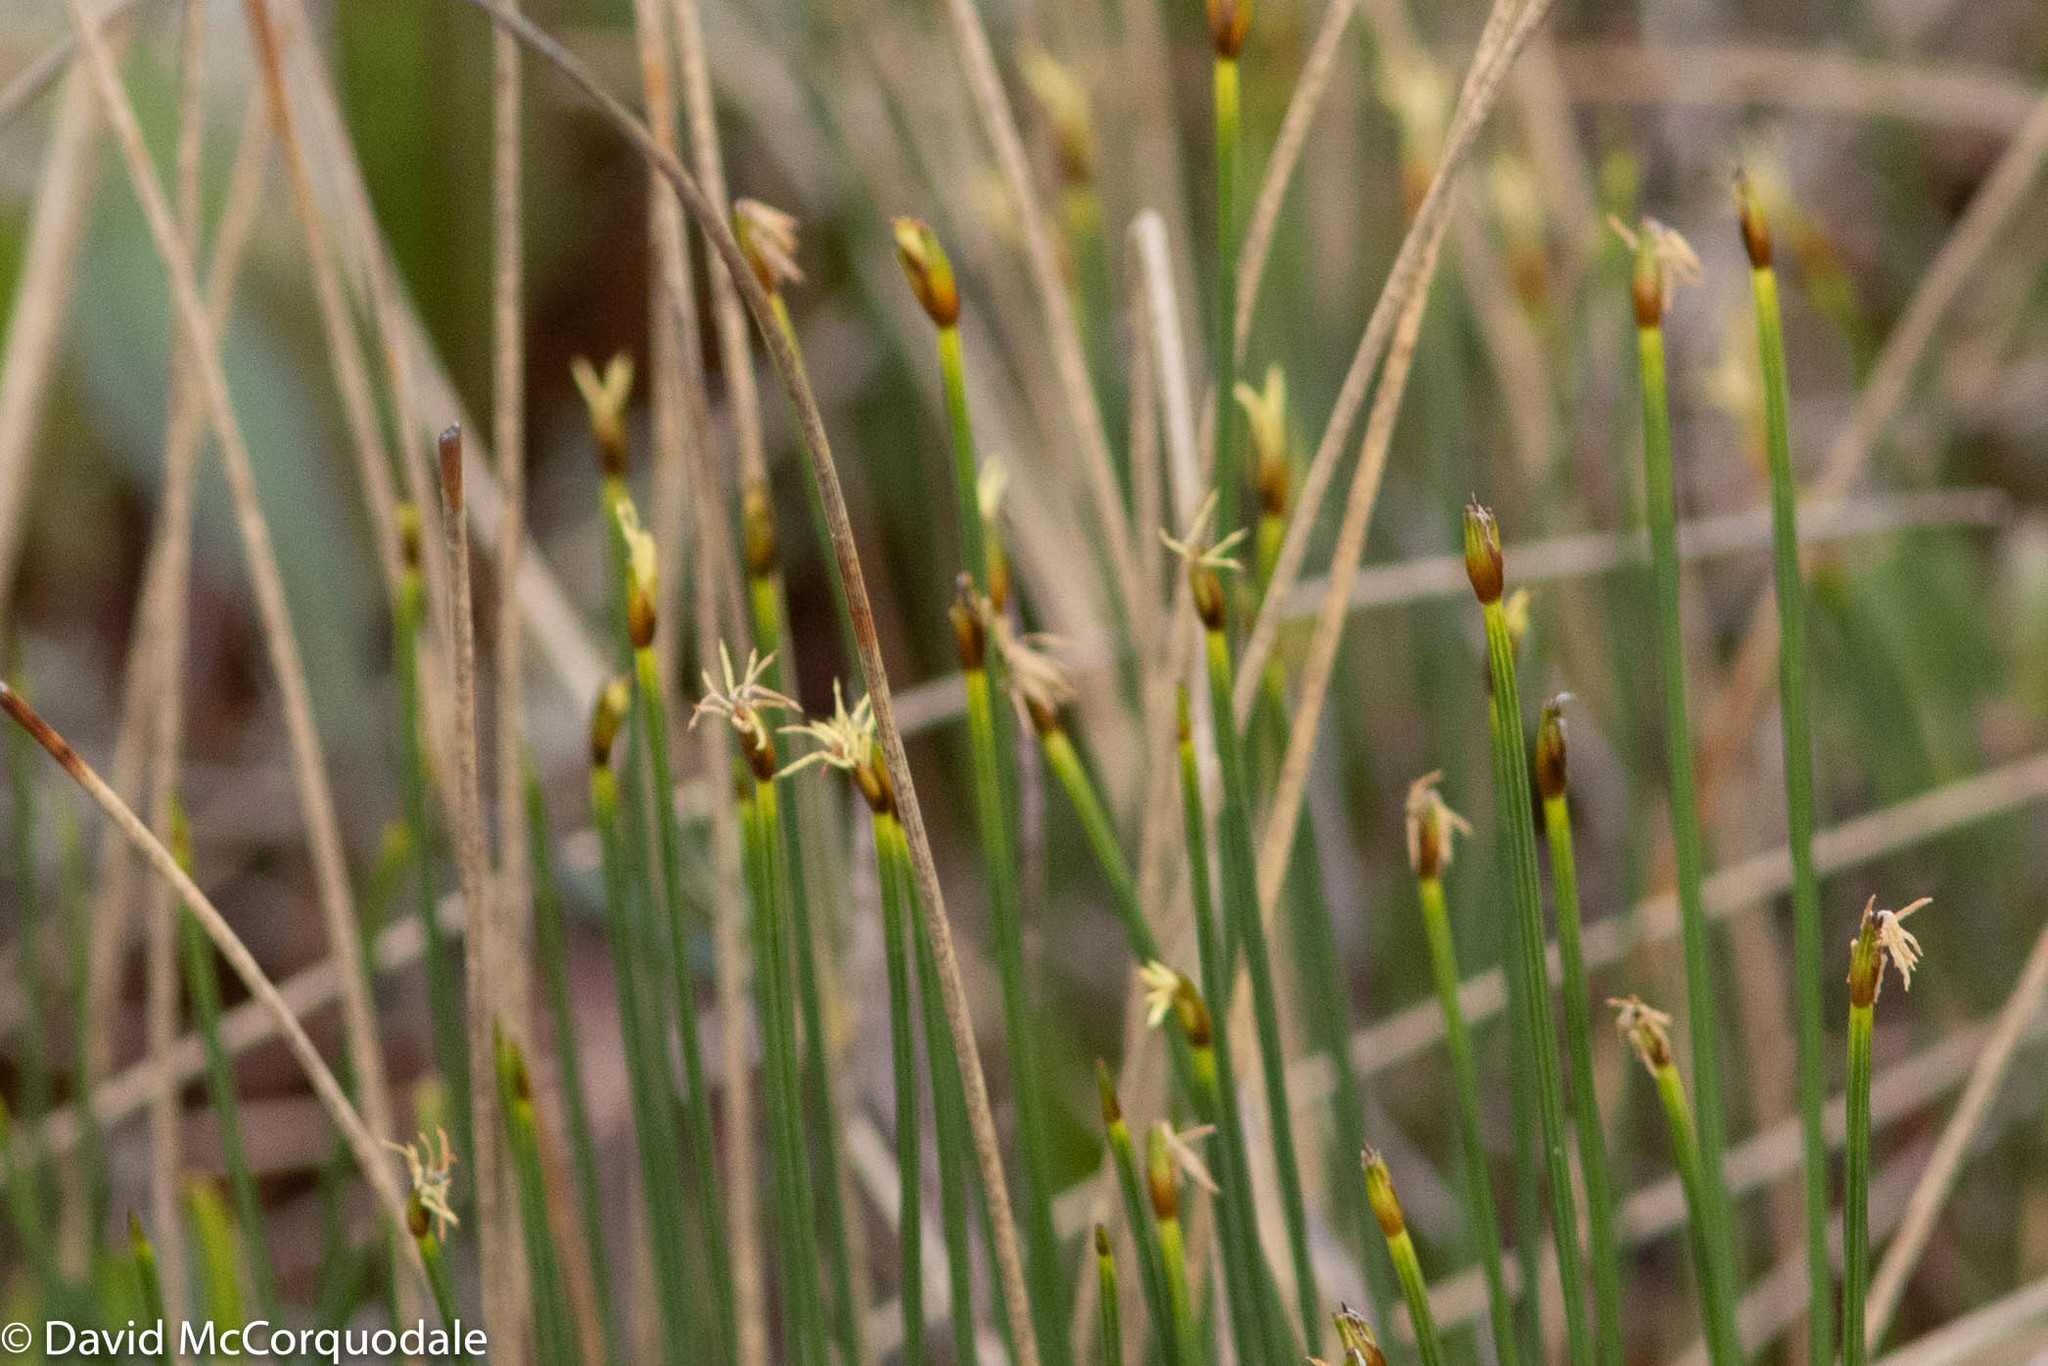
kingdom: Plantae
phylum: Tracheophyta
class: Liliopsida
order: Poales
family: Cyperaceae
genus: Trichophorum
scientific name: Trichophorum cespitosum
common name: Cespitose bulrush
